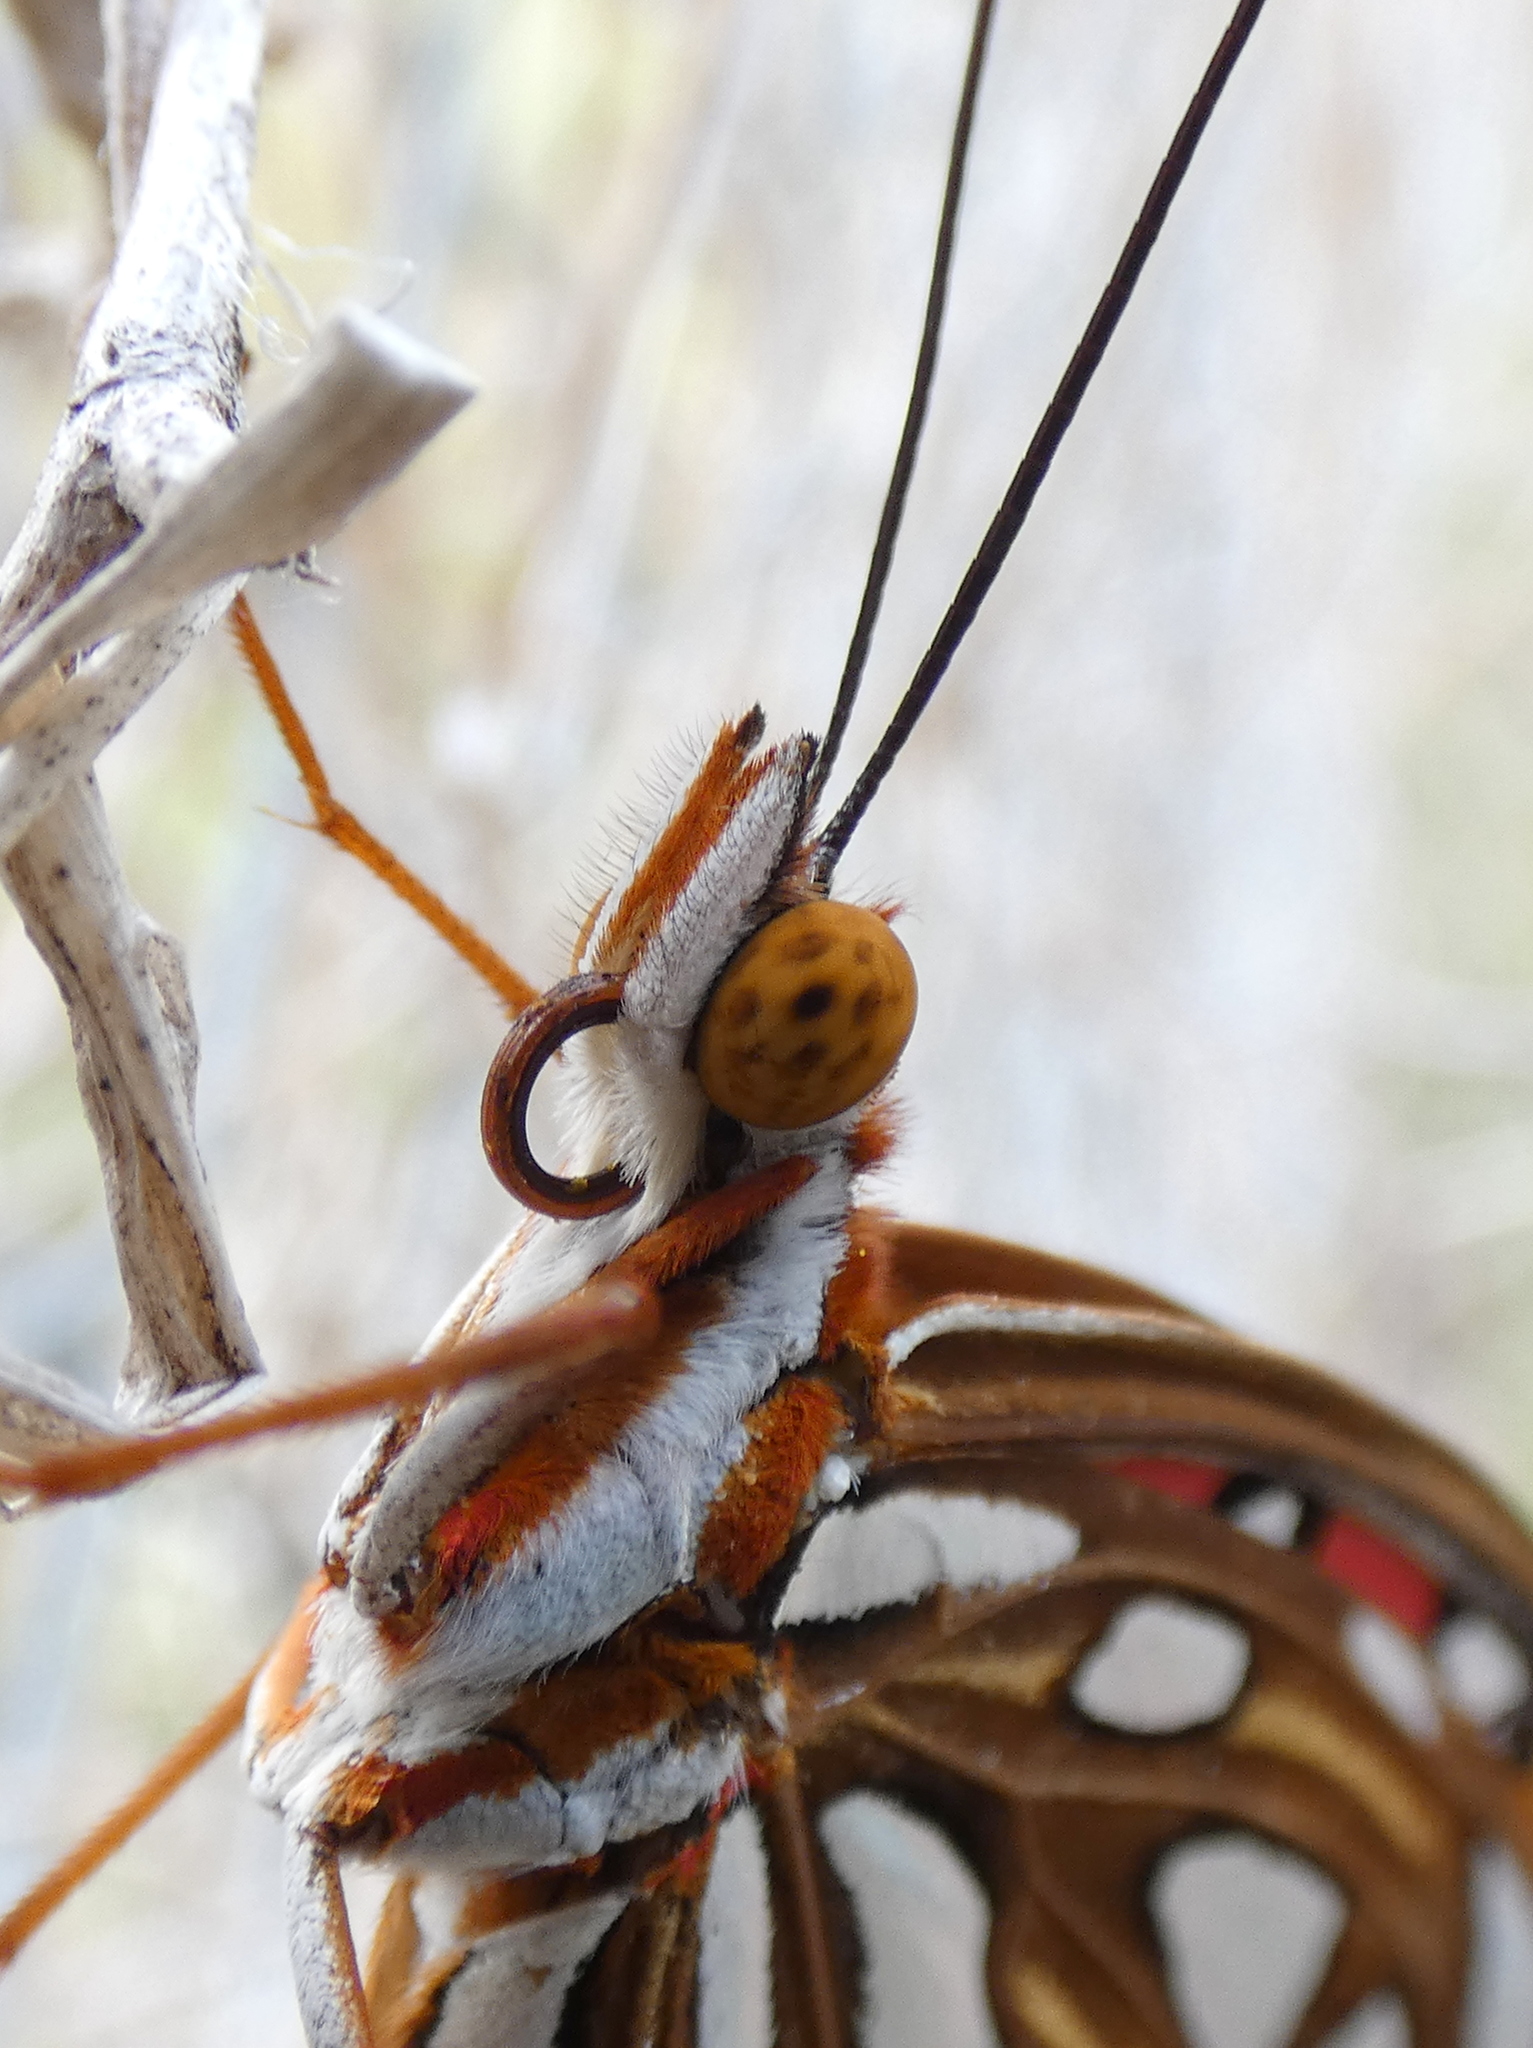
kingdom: Animalia
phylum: Arthropoda
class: Insecta
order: Lepidoptera
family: Nymphalidae
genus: Dione
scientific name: Dione vanillae
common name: Gulf fritillary
